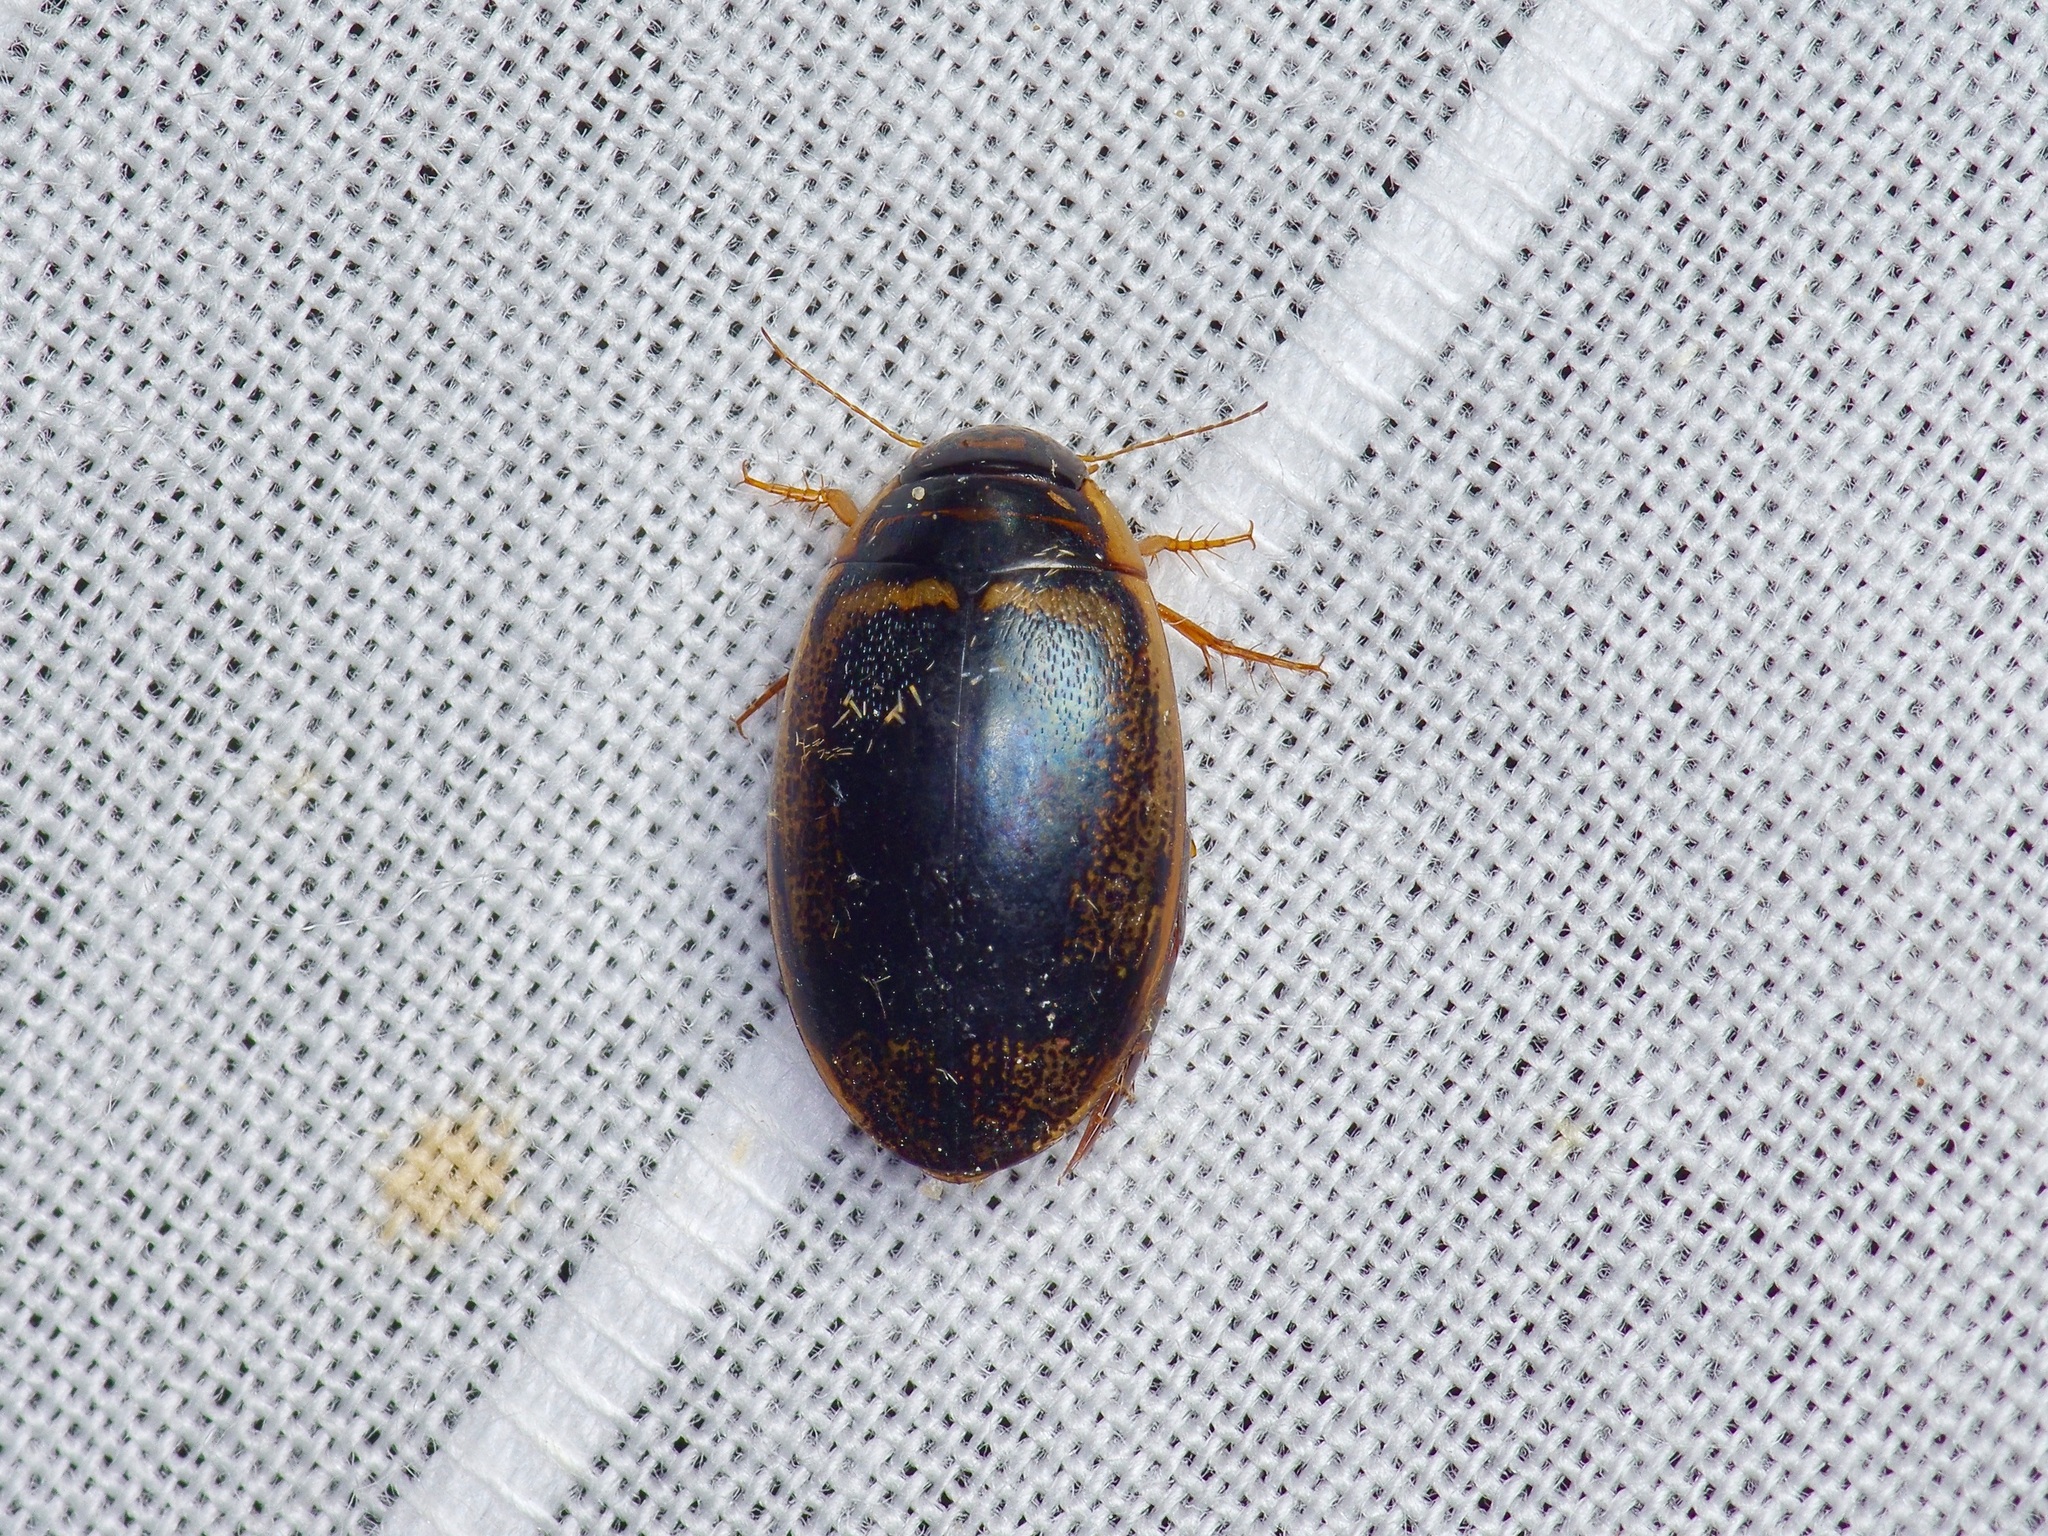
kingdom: Animalia
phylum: Arthropoda
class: Insecta
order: Coleoptera
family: Dytiscidae
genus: Thermonectus
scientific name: Thermonectus basillaris
